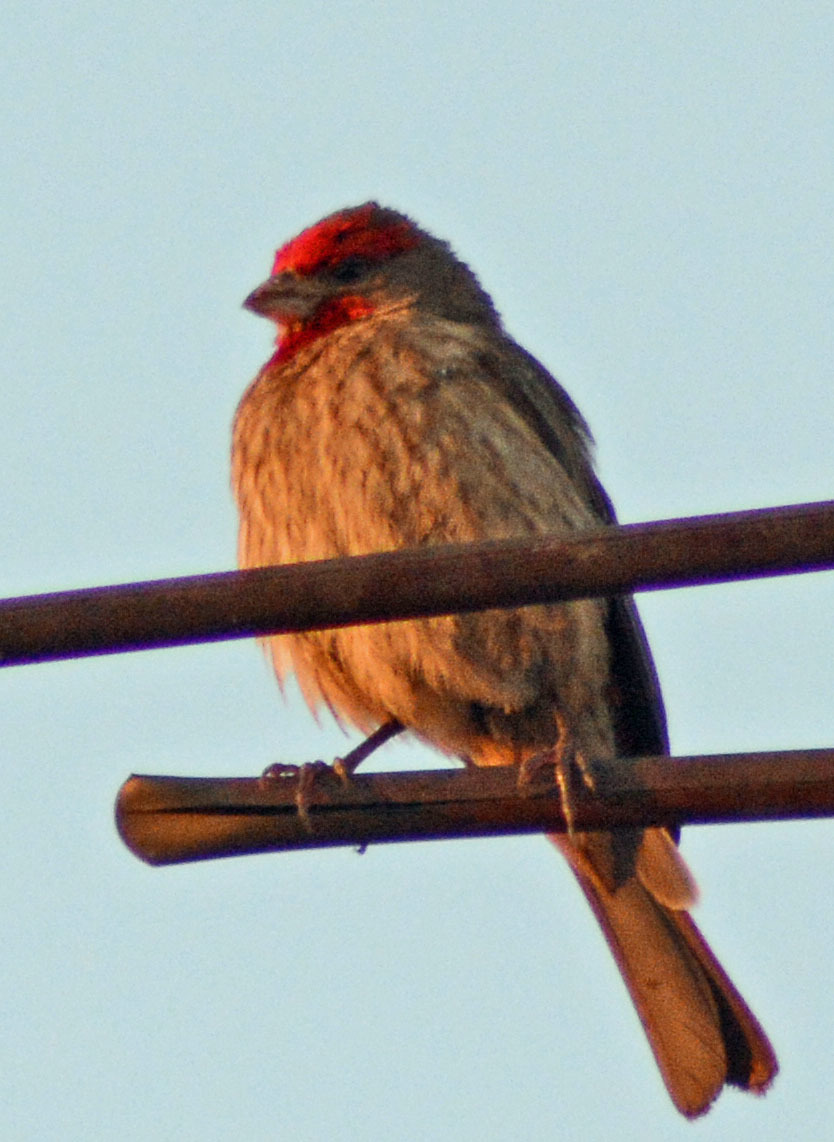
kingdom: Animalia
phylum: Chordata
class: Aves
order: Passeriformes
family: Fringillidae
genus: Haemorhous
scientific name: Haemorhous mexicanus
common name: House finch
